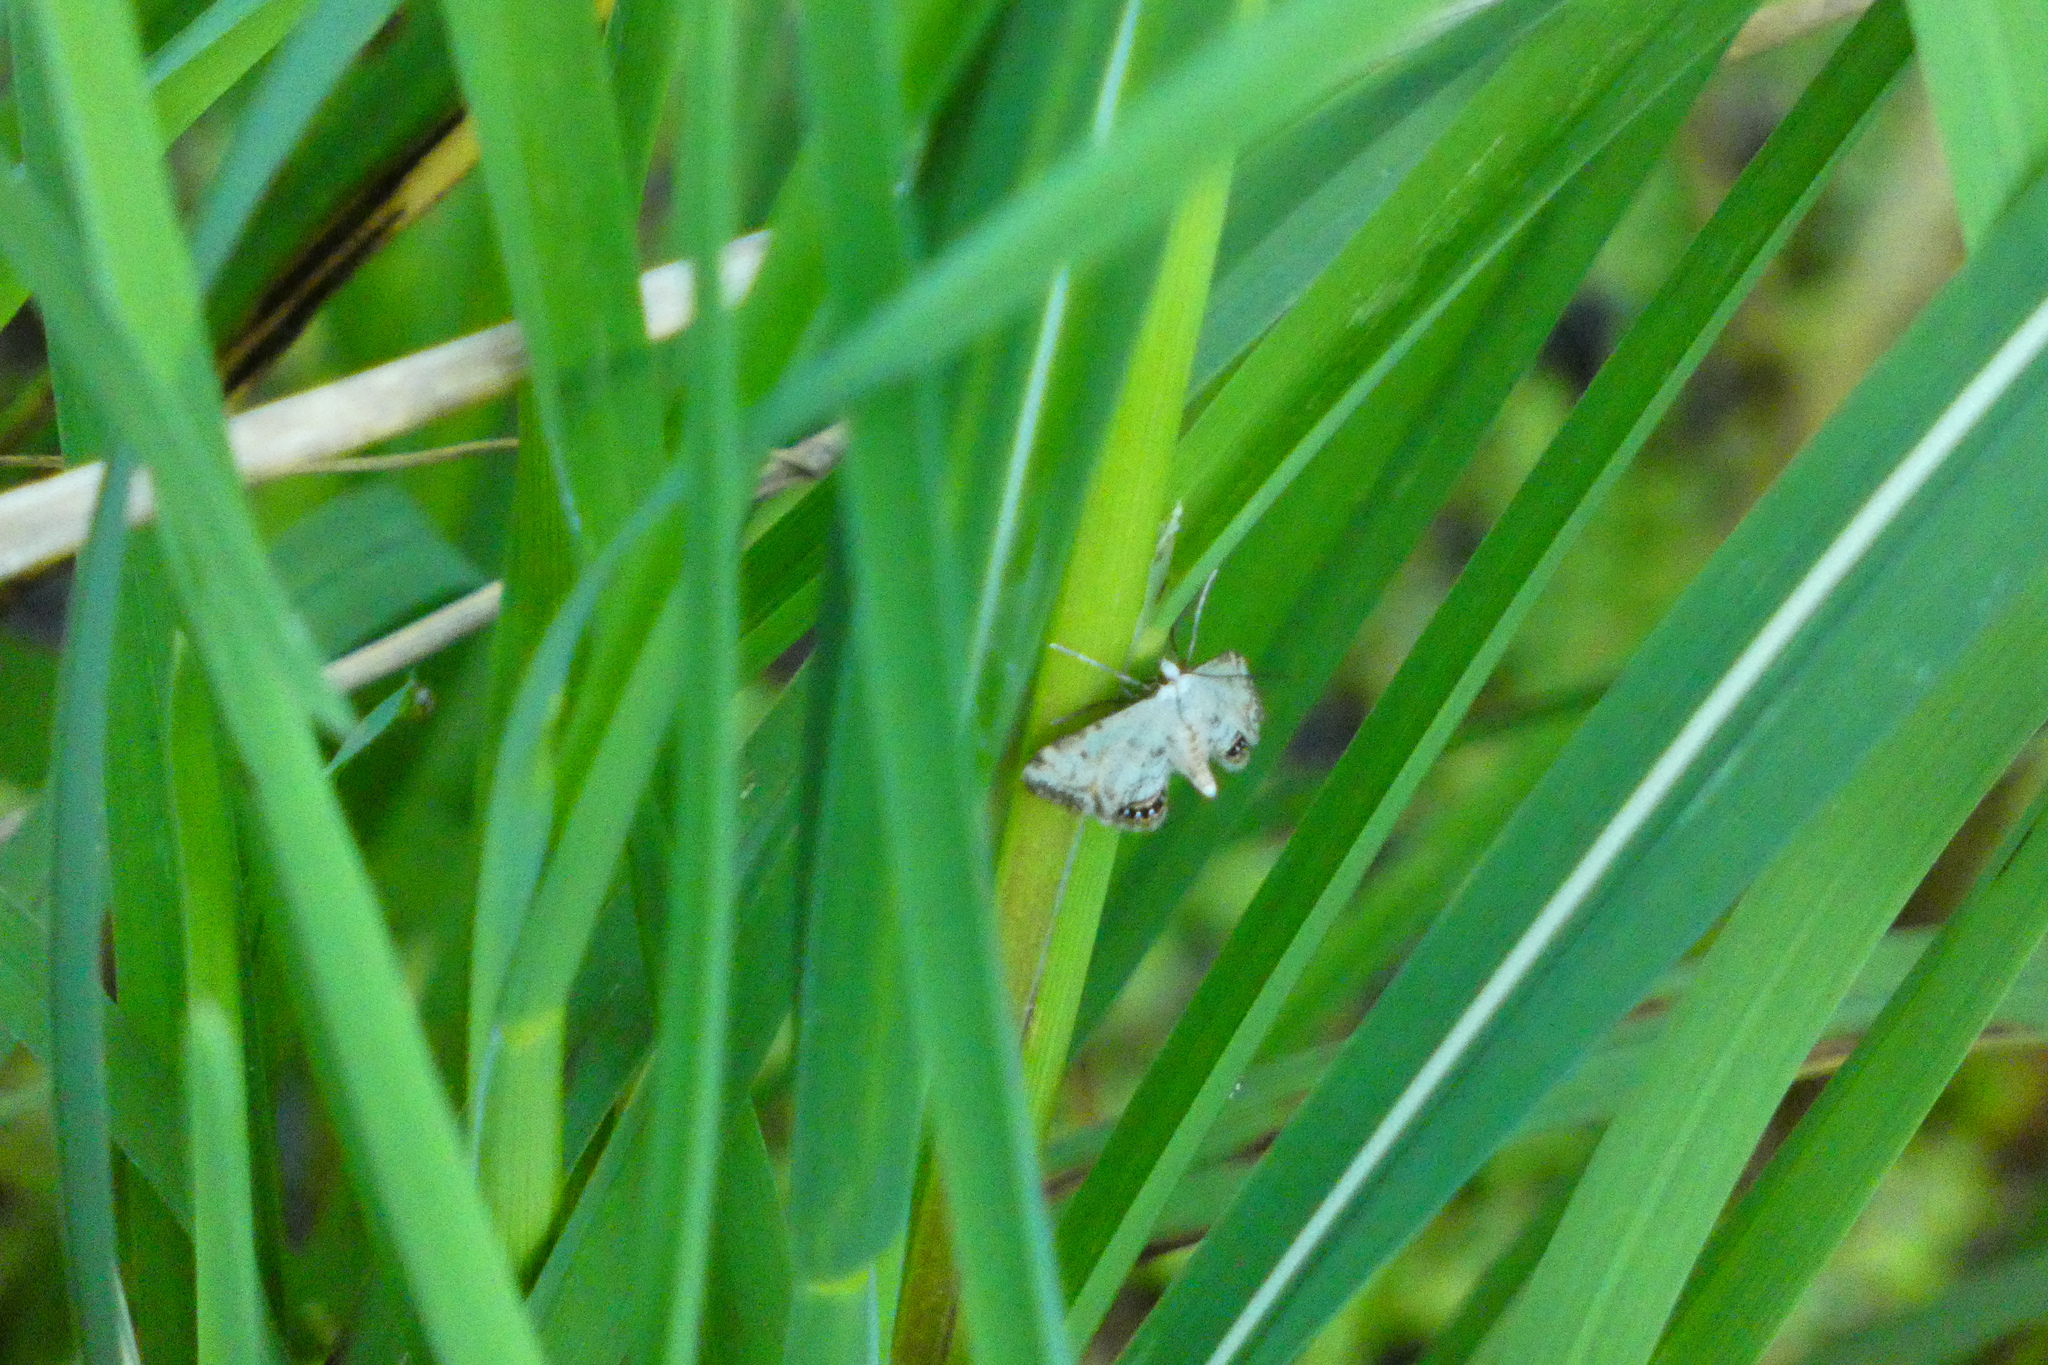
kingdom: Animalia
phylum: Arthropoda
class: Insecta
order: Lepidoptera
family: Crambidae
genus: Cataclysta
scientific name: Cataclysta lemnata
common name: Small china-mark
